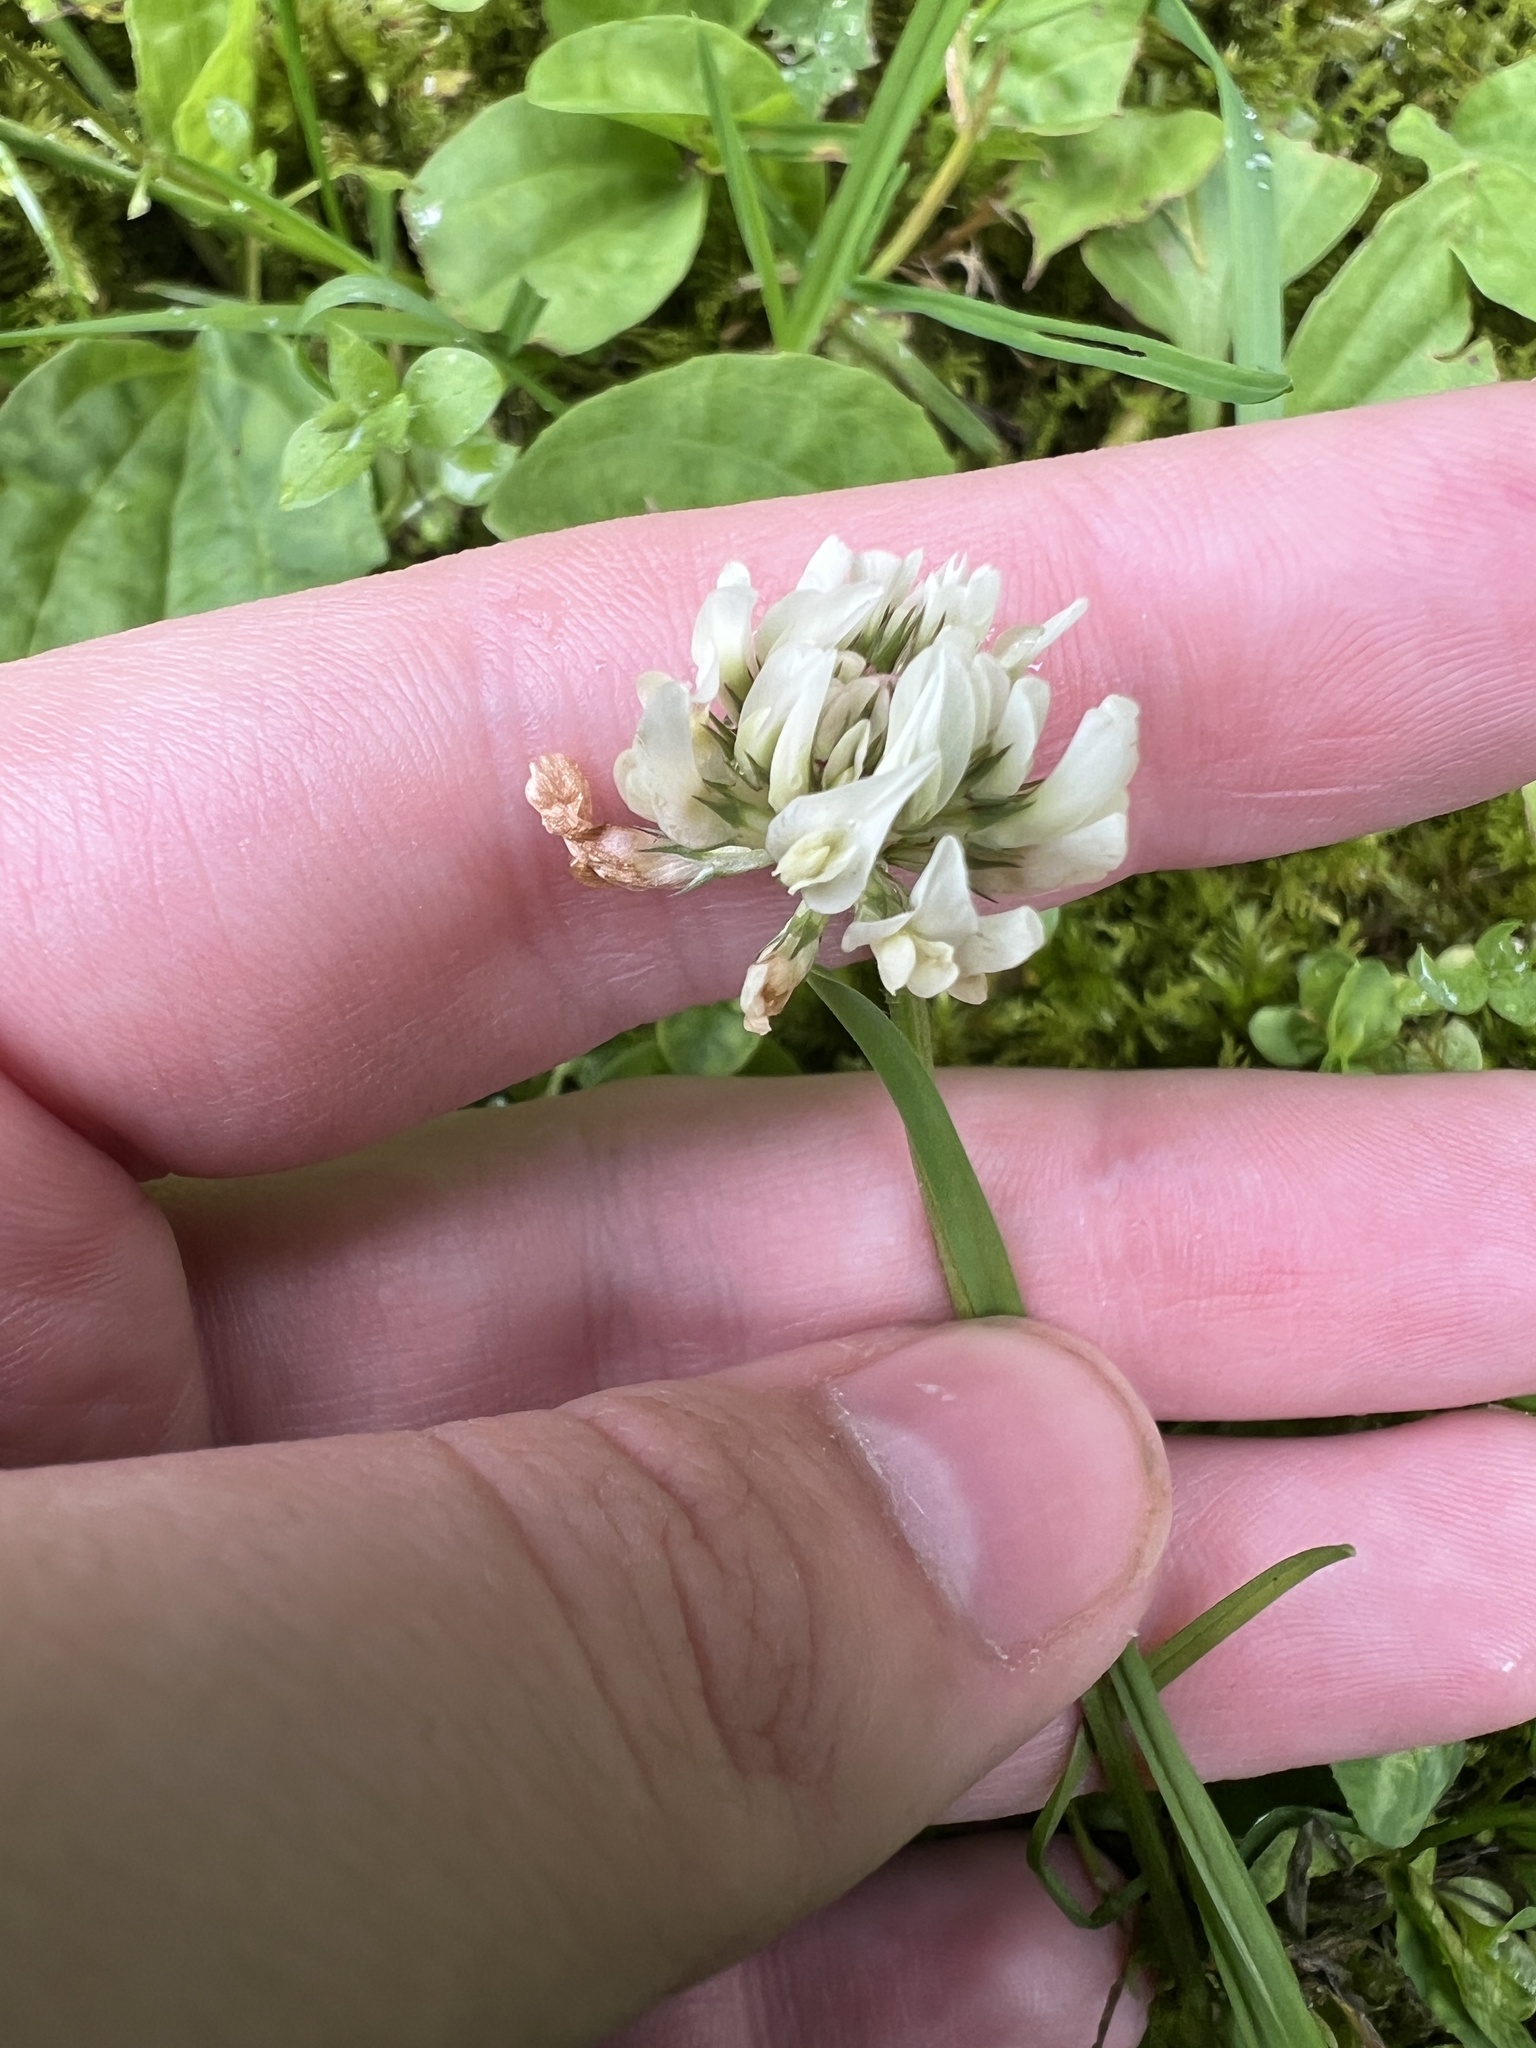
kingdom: Plantae
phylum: Tracheophyta
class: Magnoliopsida
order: Fabales
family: Fabaceae
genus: Trifolium
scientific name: Trifolium repens
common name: White clover
